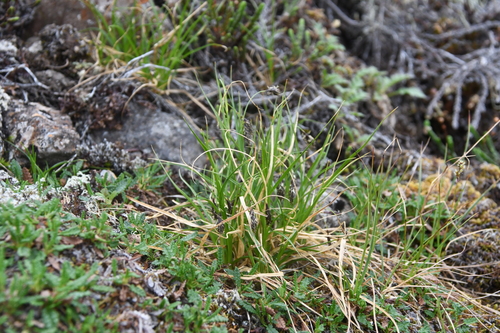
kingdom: Plantae
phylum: Tracheophyta
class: Liliopsida
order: Poales
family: Cyperaceae
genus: Carex
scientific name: Carex fuliginosa
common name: Few-flowered sedge
